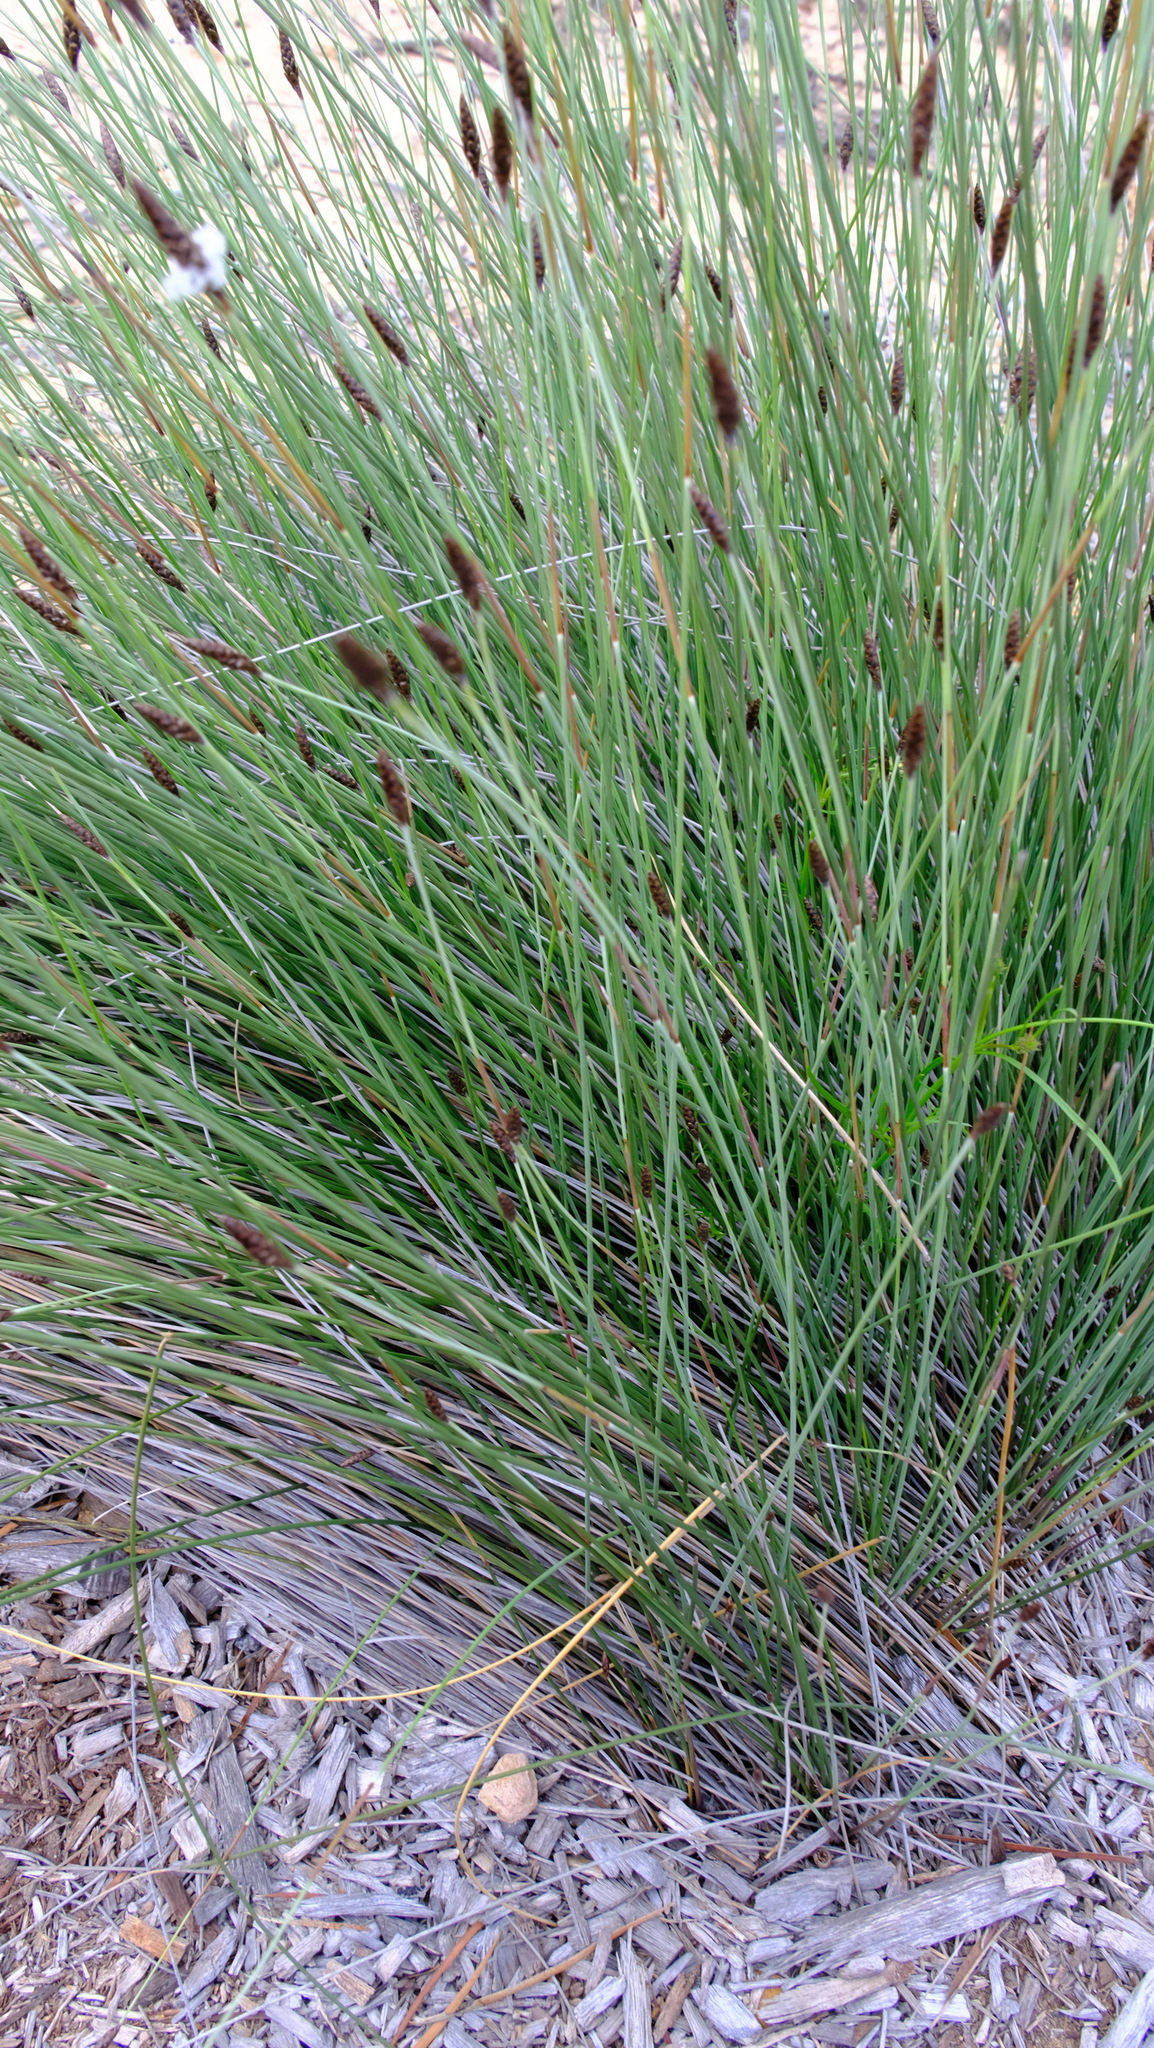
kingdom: Plantae
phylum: Tracheophyta
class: Liliopsida
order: Poales
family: Ecdeiocoleaceae
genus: Ecdeiocolea
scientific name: Ecdeiocolea monostachya
